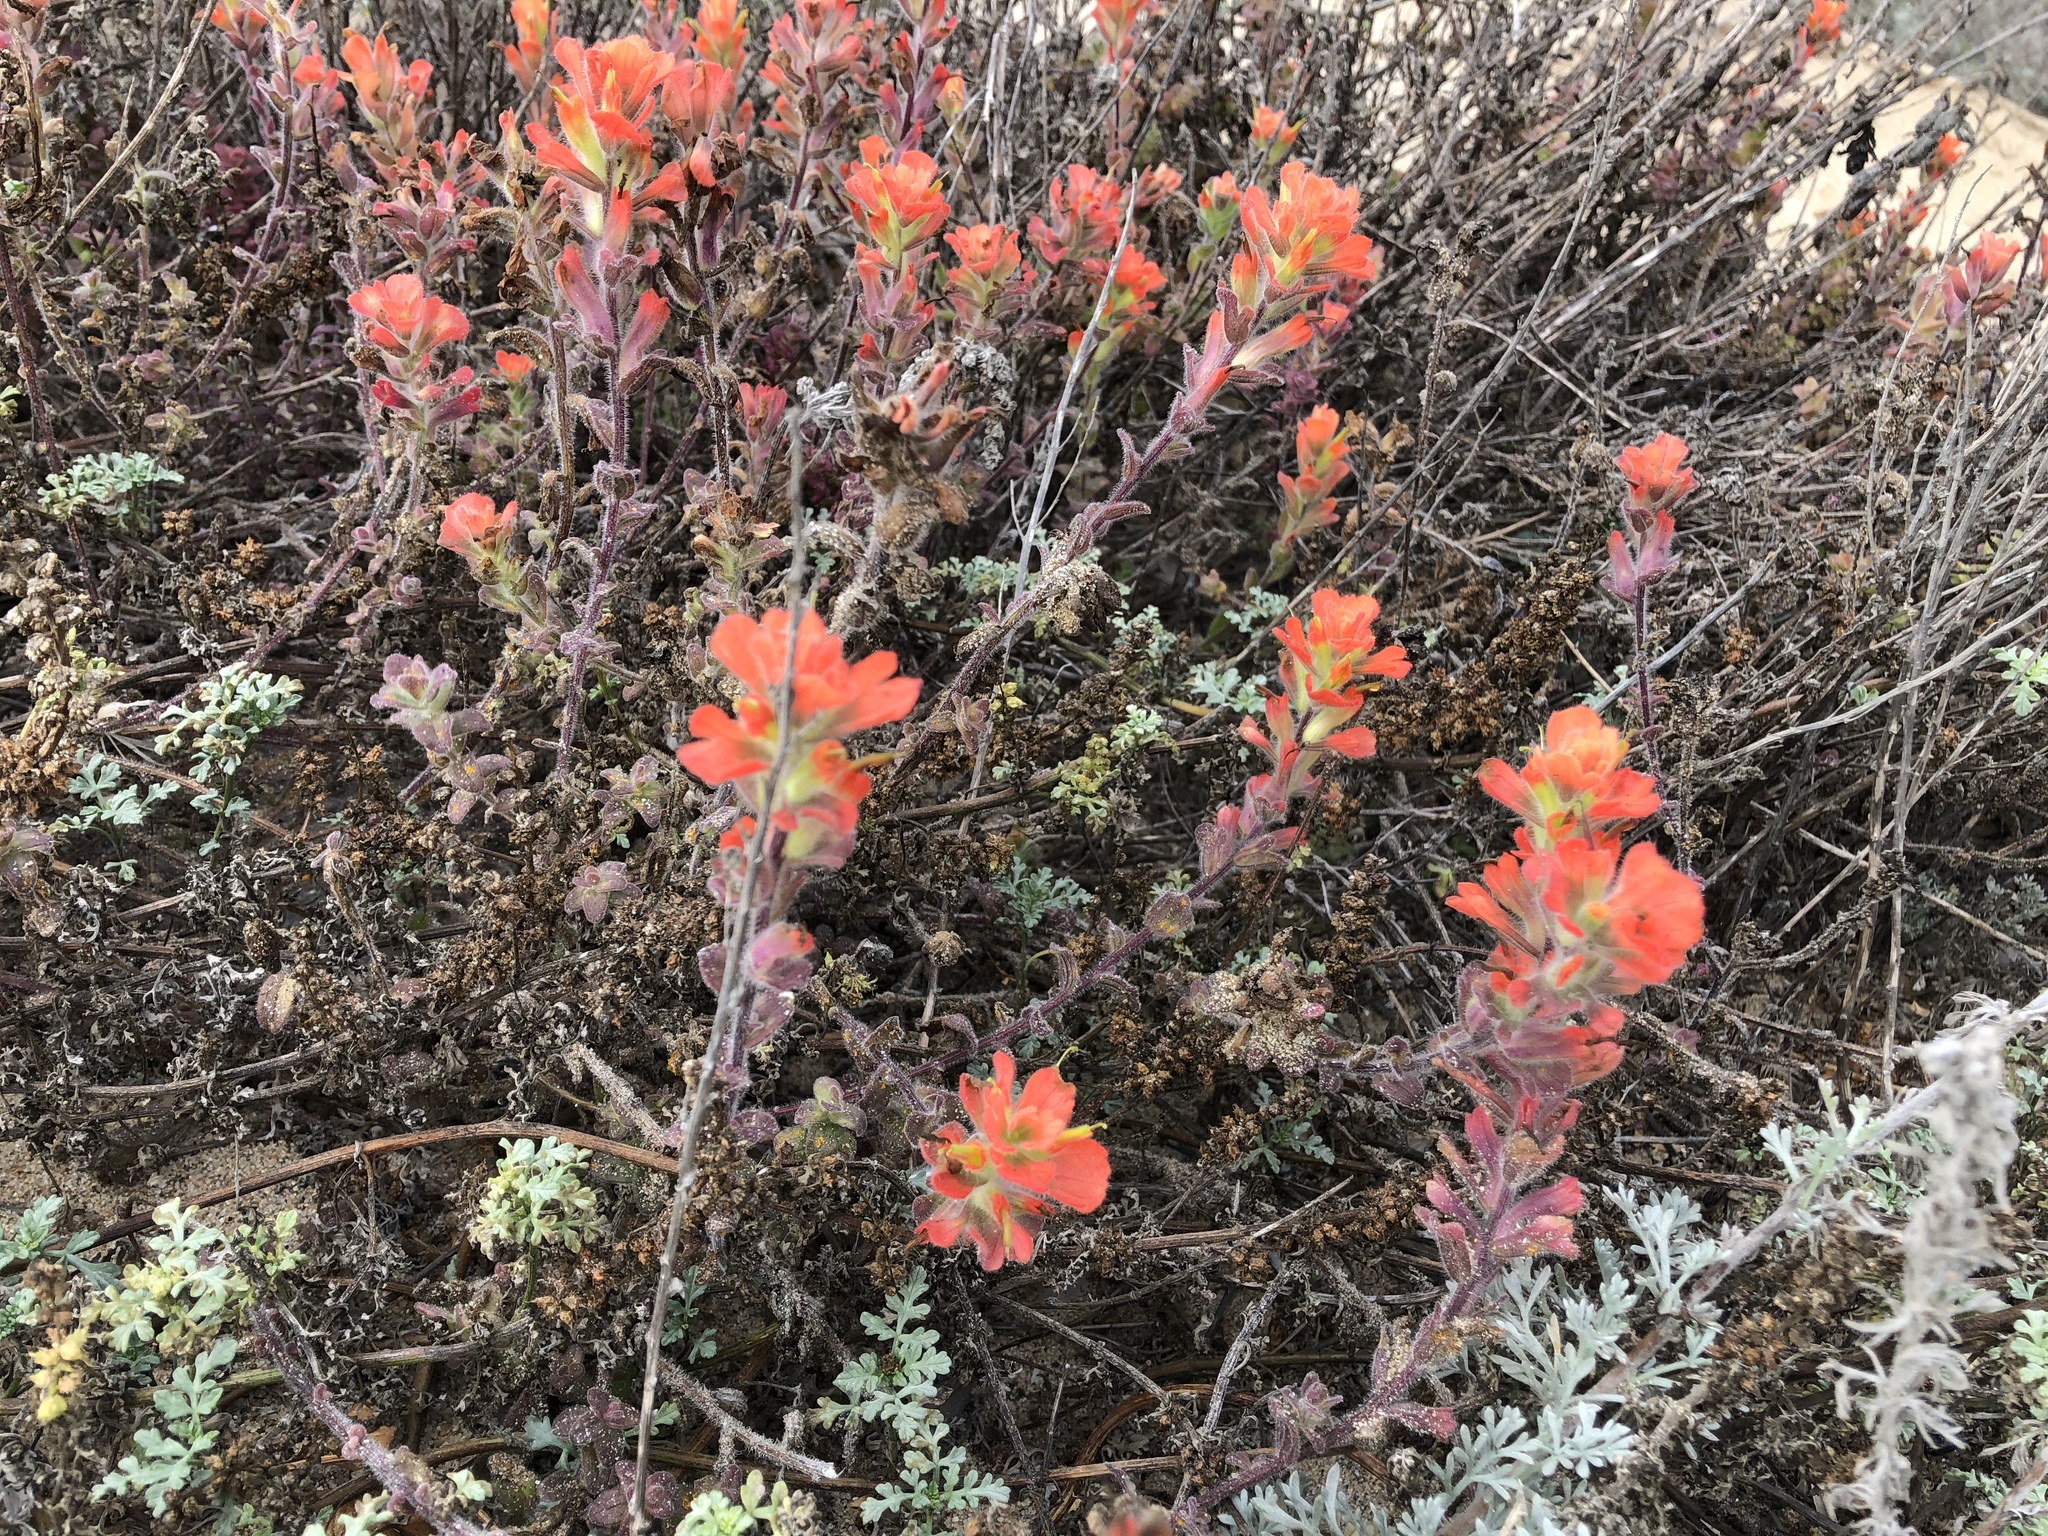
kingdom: Plantae
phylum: Tracheophyta
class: Magnoliopsida
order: Lamiales
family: Orobanchaceae
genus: Castilleja
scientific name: Castilleja latifolia
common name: Monterey indian paintbrush
